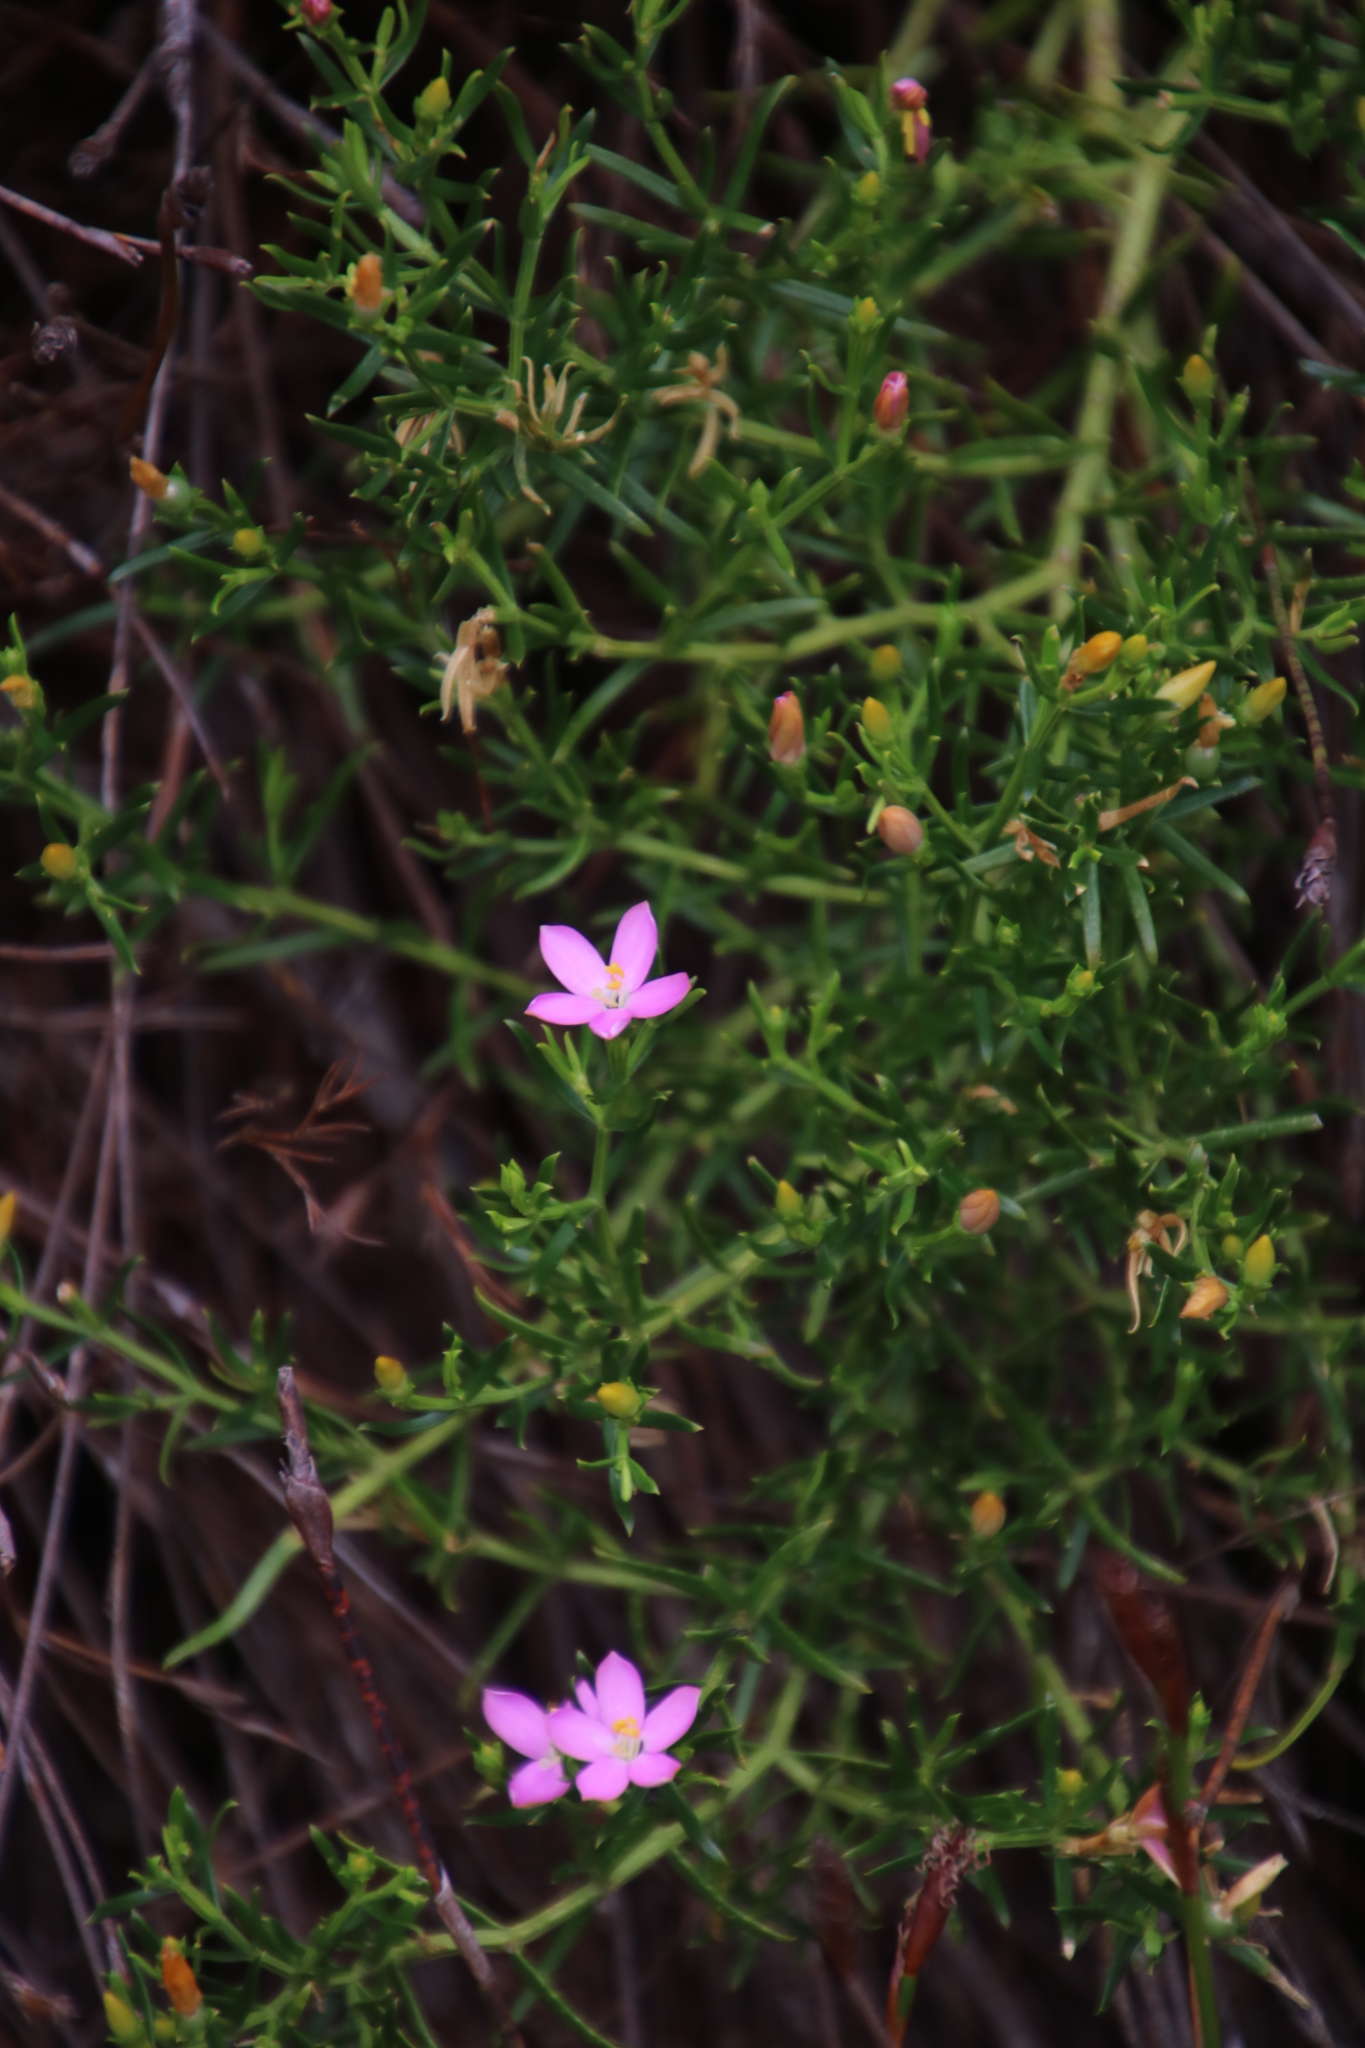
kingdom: Plantae
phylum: Tracheophyta
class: Magnoliopsida
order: Gentianales
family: Gentianaceae
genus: Chironia
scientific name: Chironia baccifera
